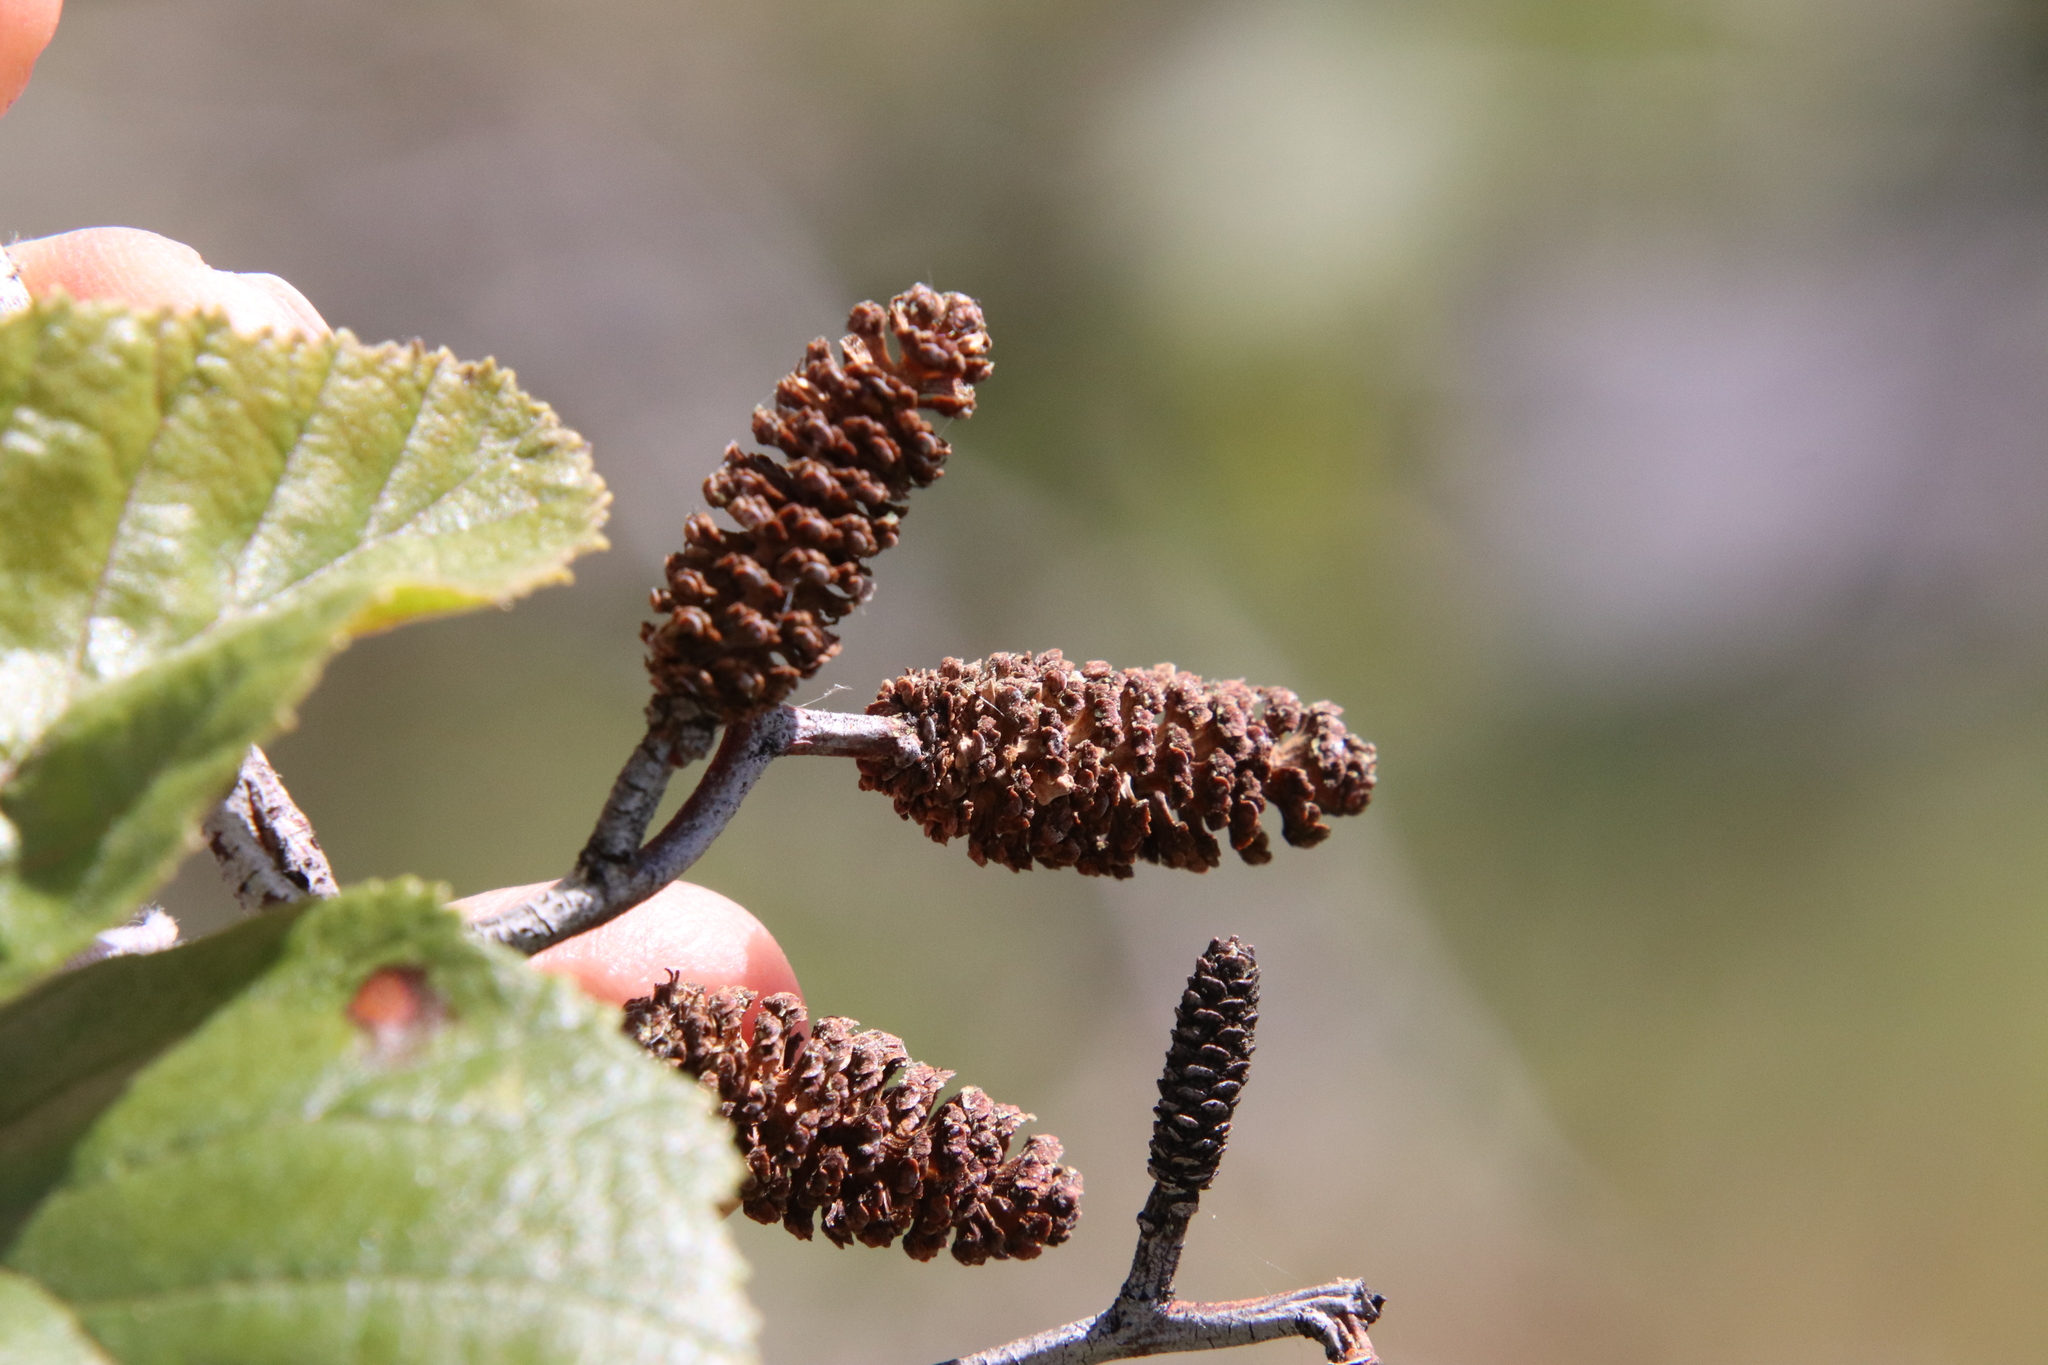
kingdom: Plantae
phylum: Tracheophyta
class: Magnoliopsida
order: Fagales
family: Betulaceae
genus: Alnus
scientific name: Alnus rhombifolia
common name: California alder
